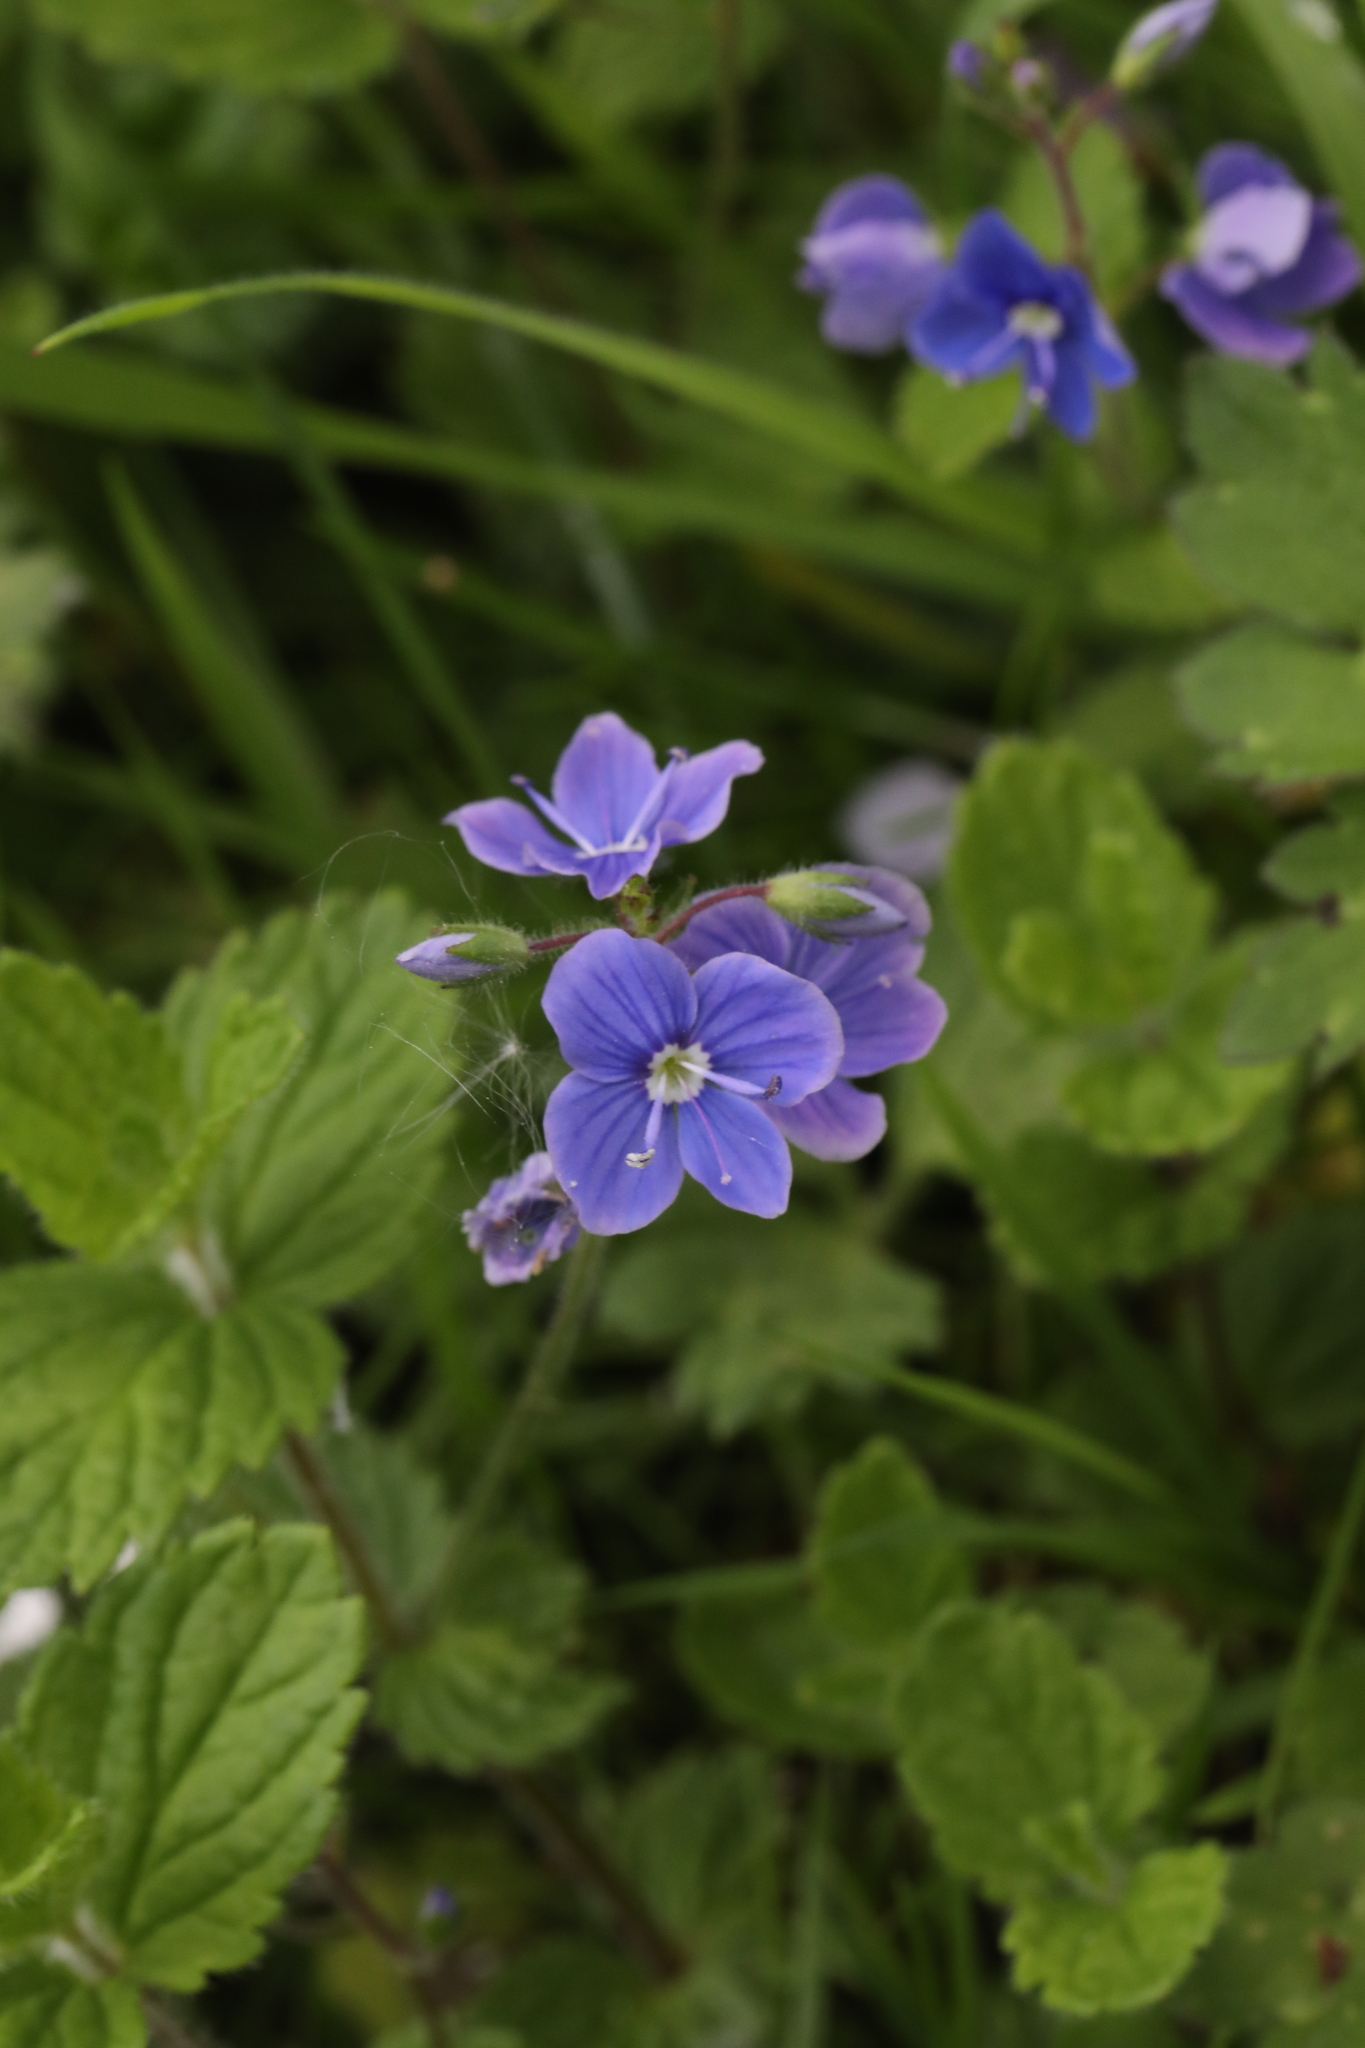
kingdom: Plantae
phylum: Tracheophyta
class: Magnoliopsida
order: Lamiales
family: Plantaginaceae
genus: Veronica
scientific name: Veronica chamaedrys
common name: Germander speedwell
